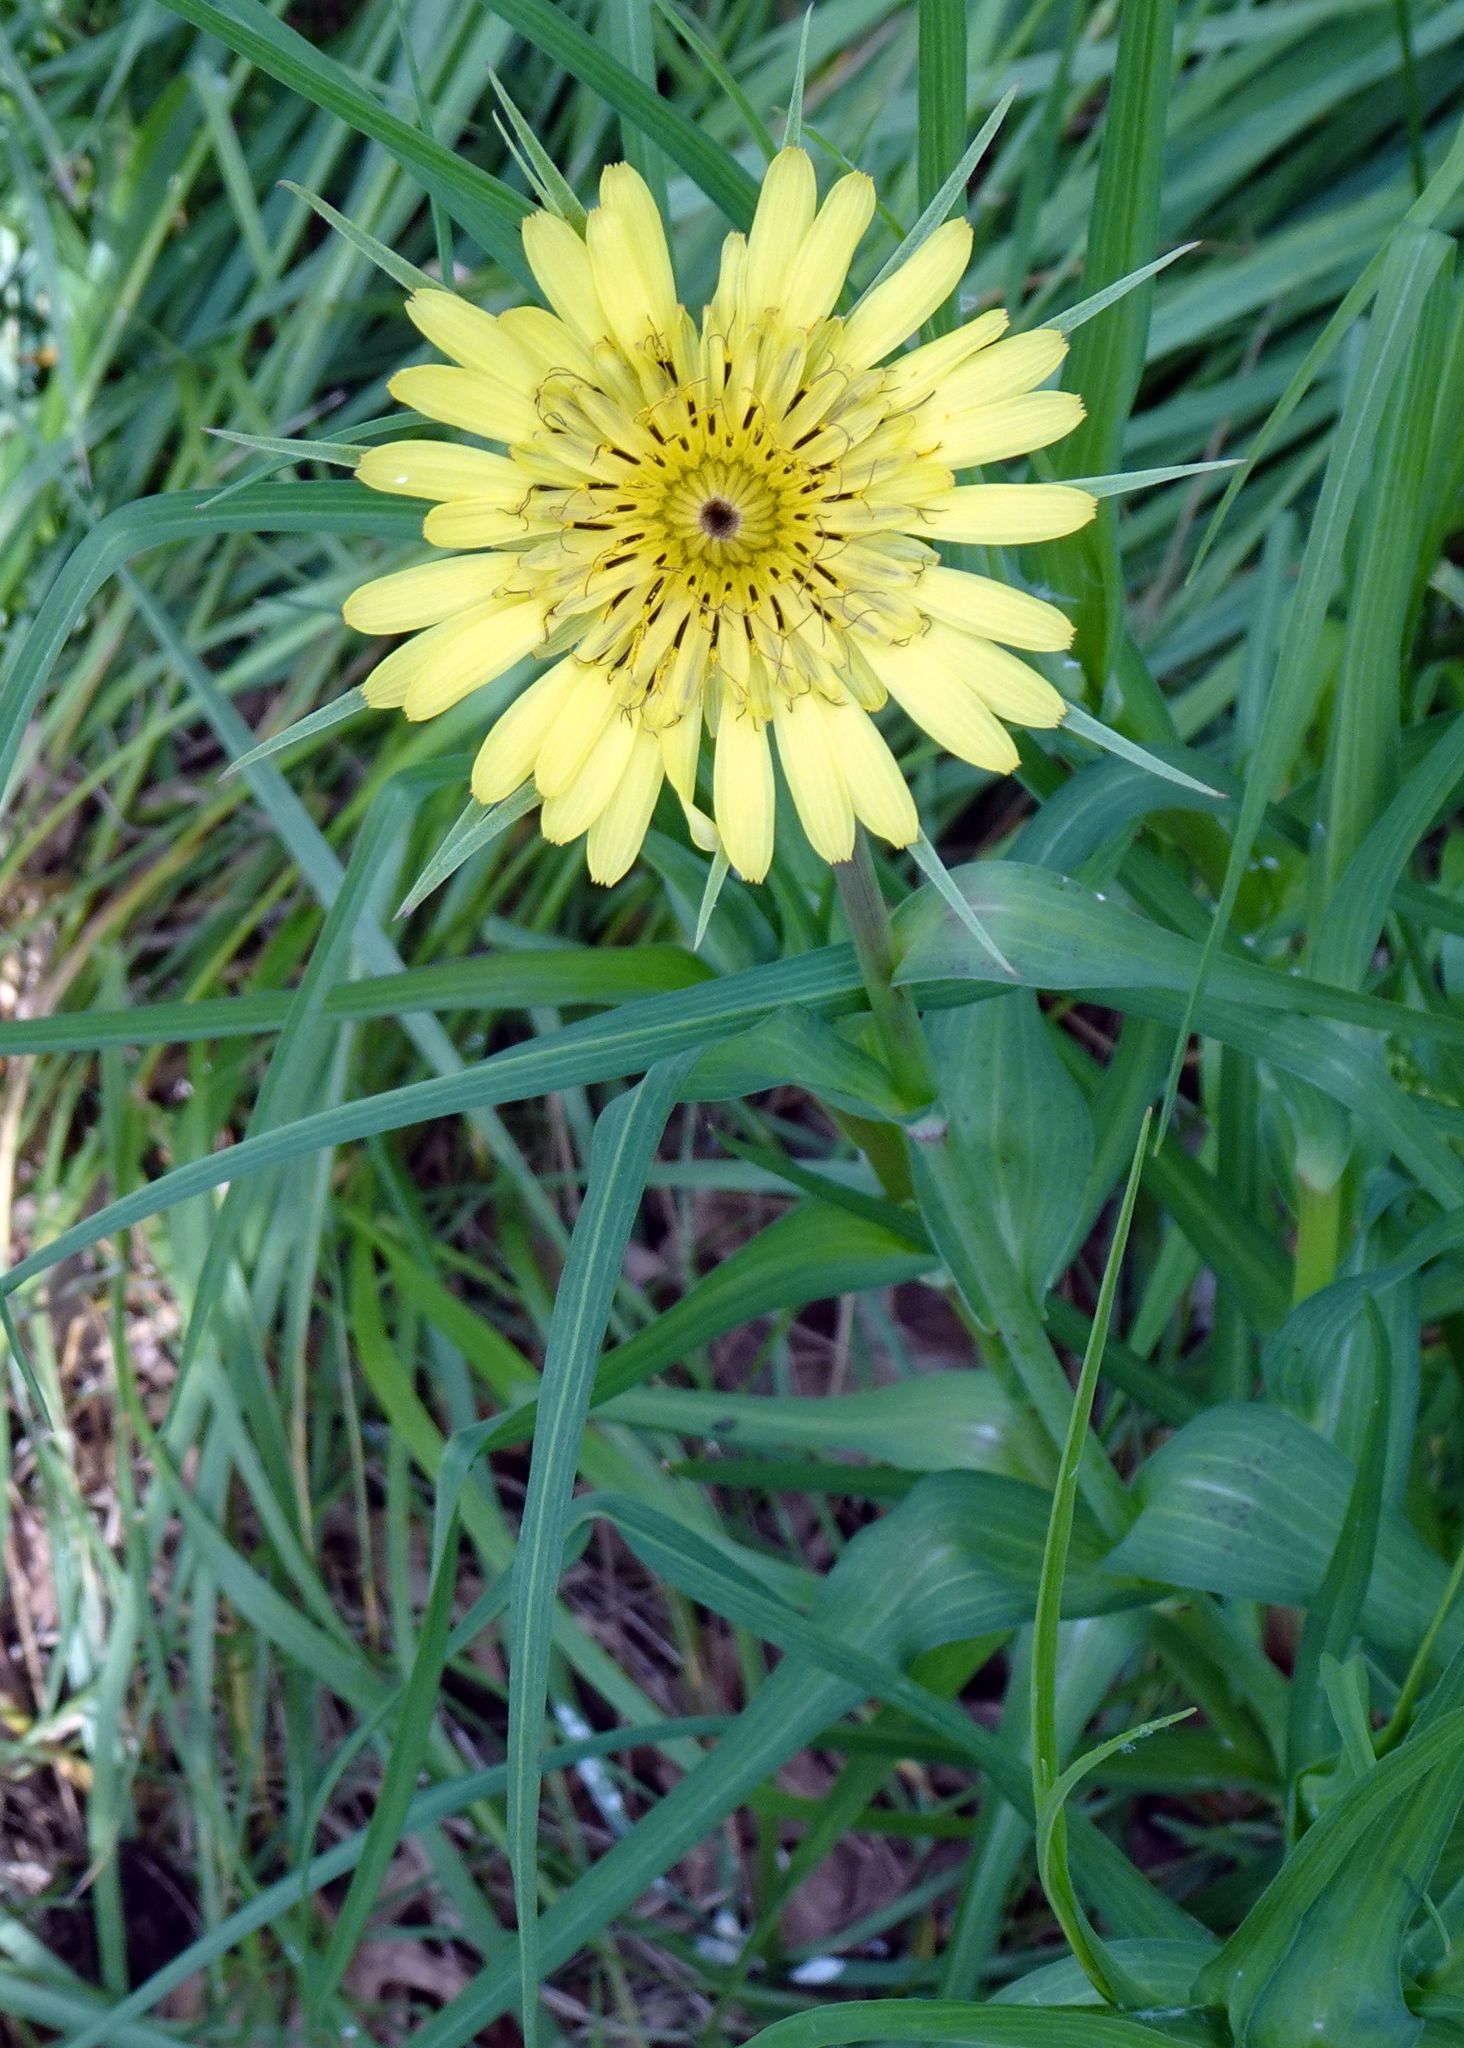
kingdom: Plantae
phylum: Tracheophyta
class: Magnoliopsida
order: Asterales
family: Asteraceae
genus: Tragopogon
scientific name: Tragopogon dubius
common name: Yellow salsify
